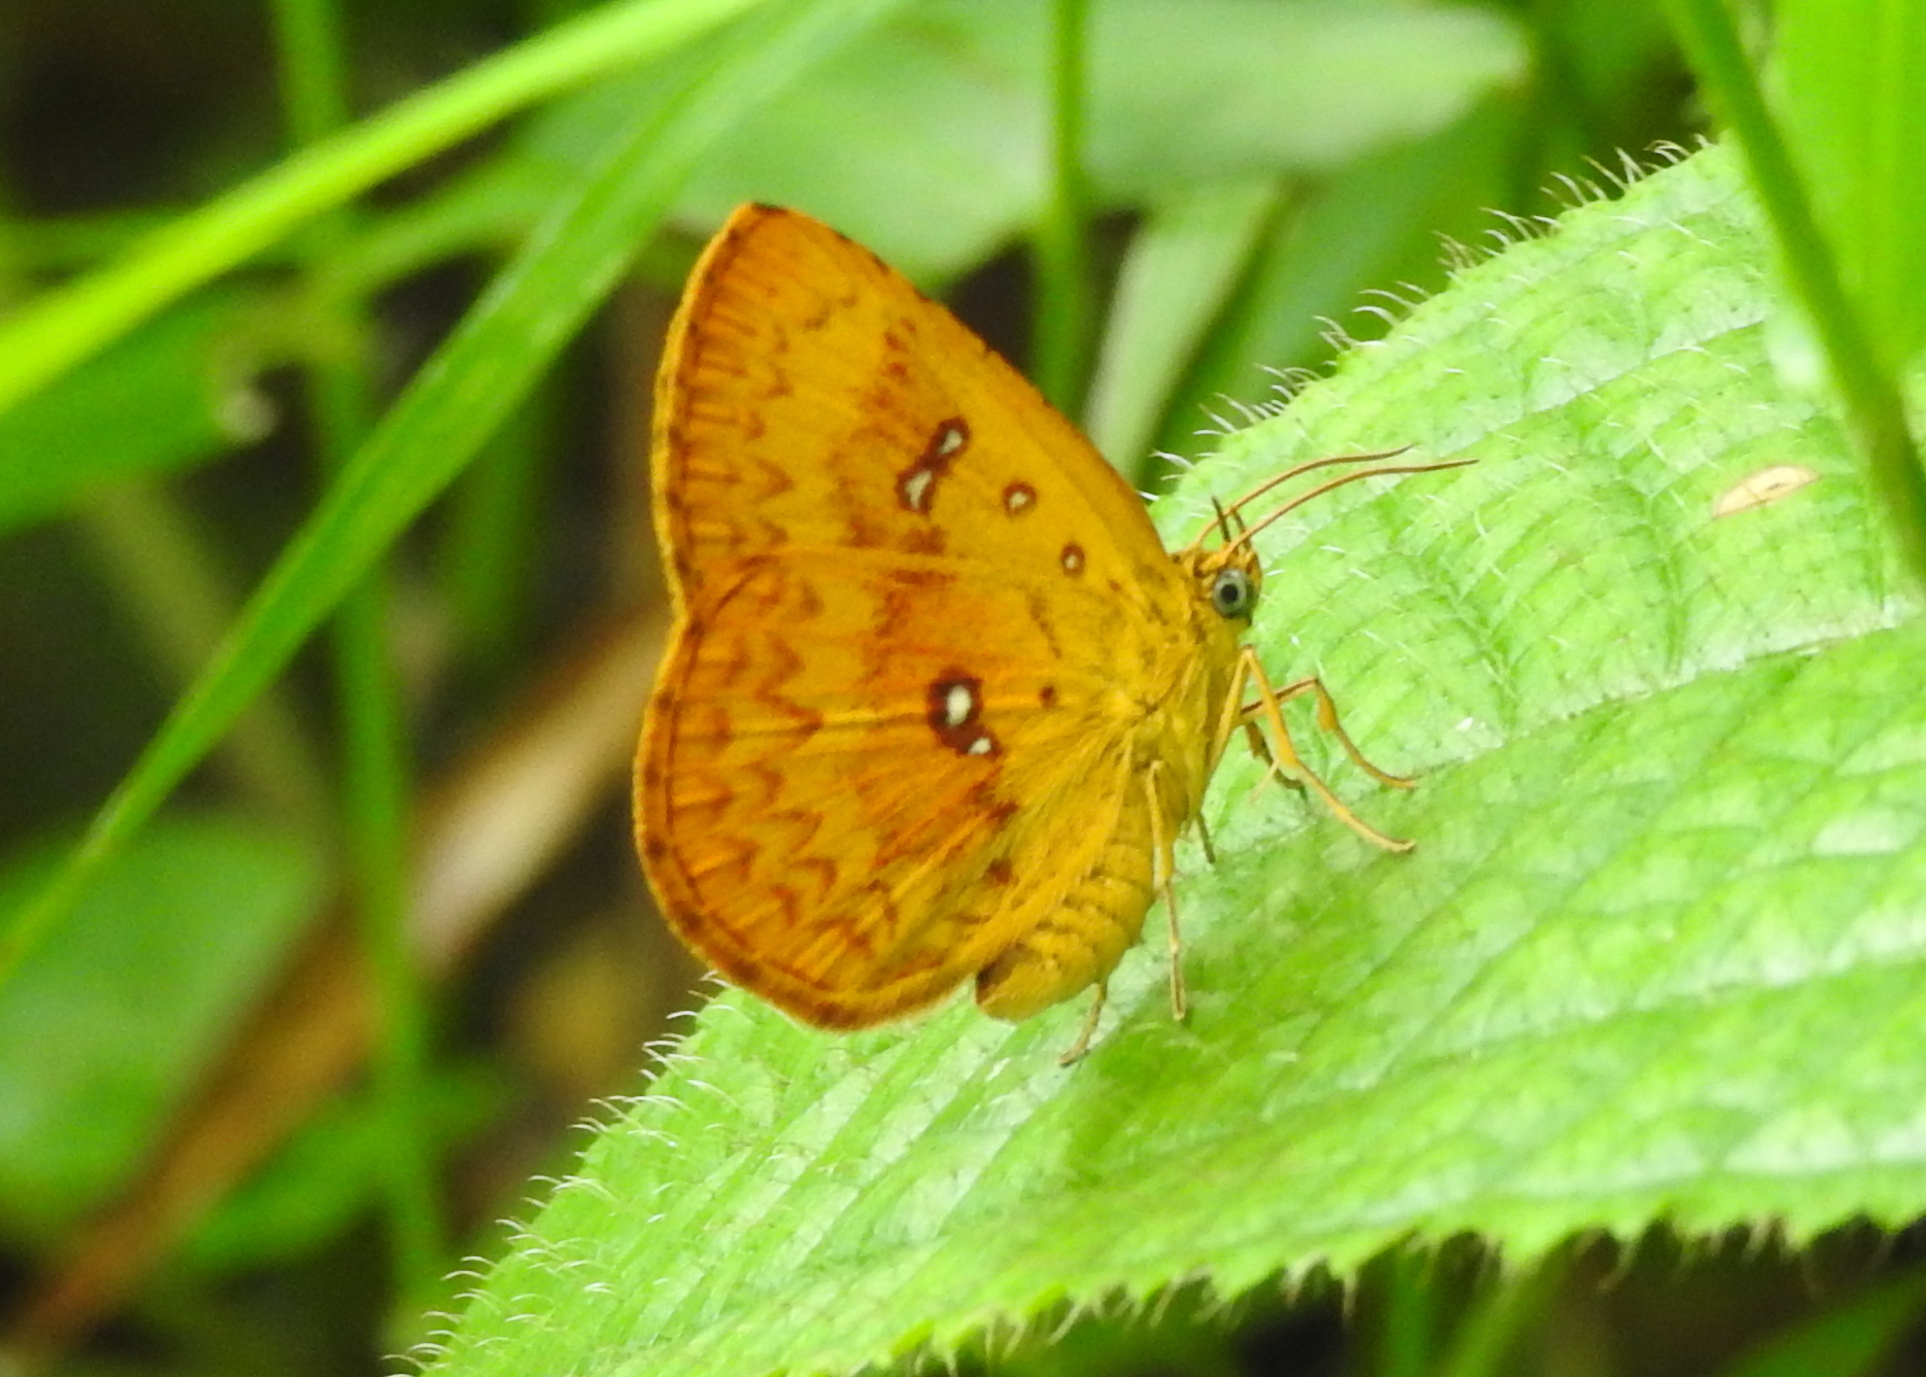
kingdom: Animalia
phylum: Arthropoda
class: Insecta
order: Lepidoptera
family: Callidulidae
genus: Tetragonus
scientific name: Tetragonus lycaenoides
